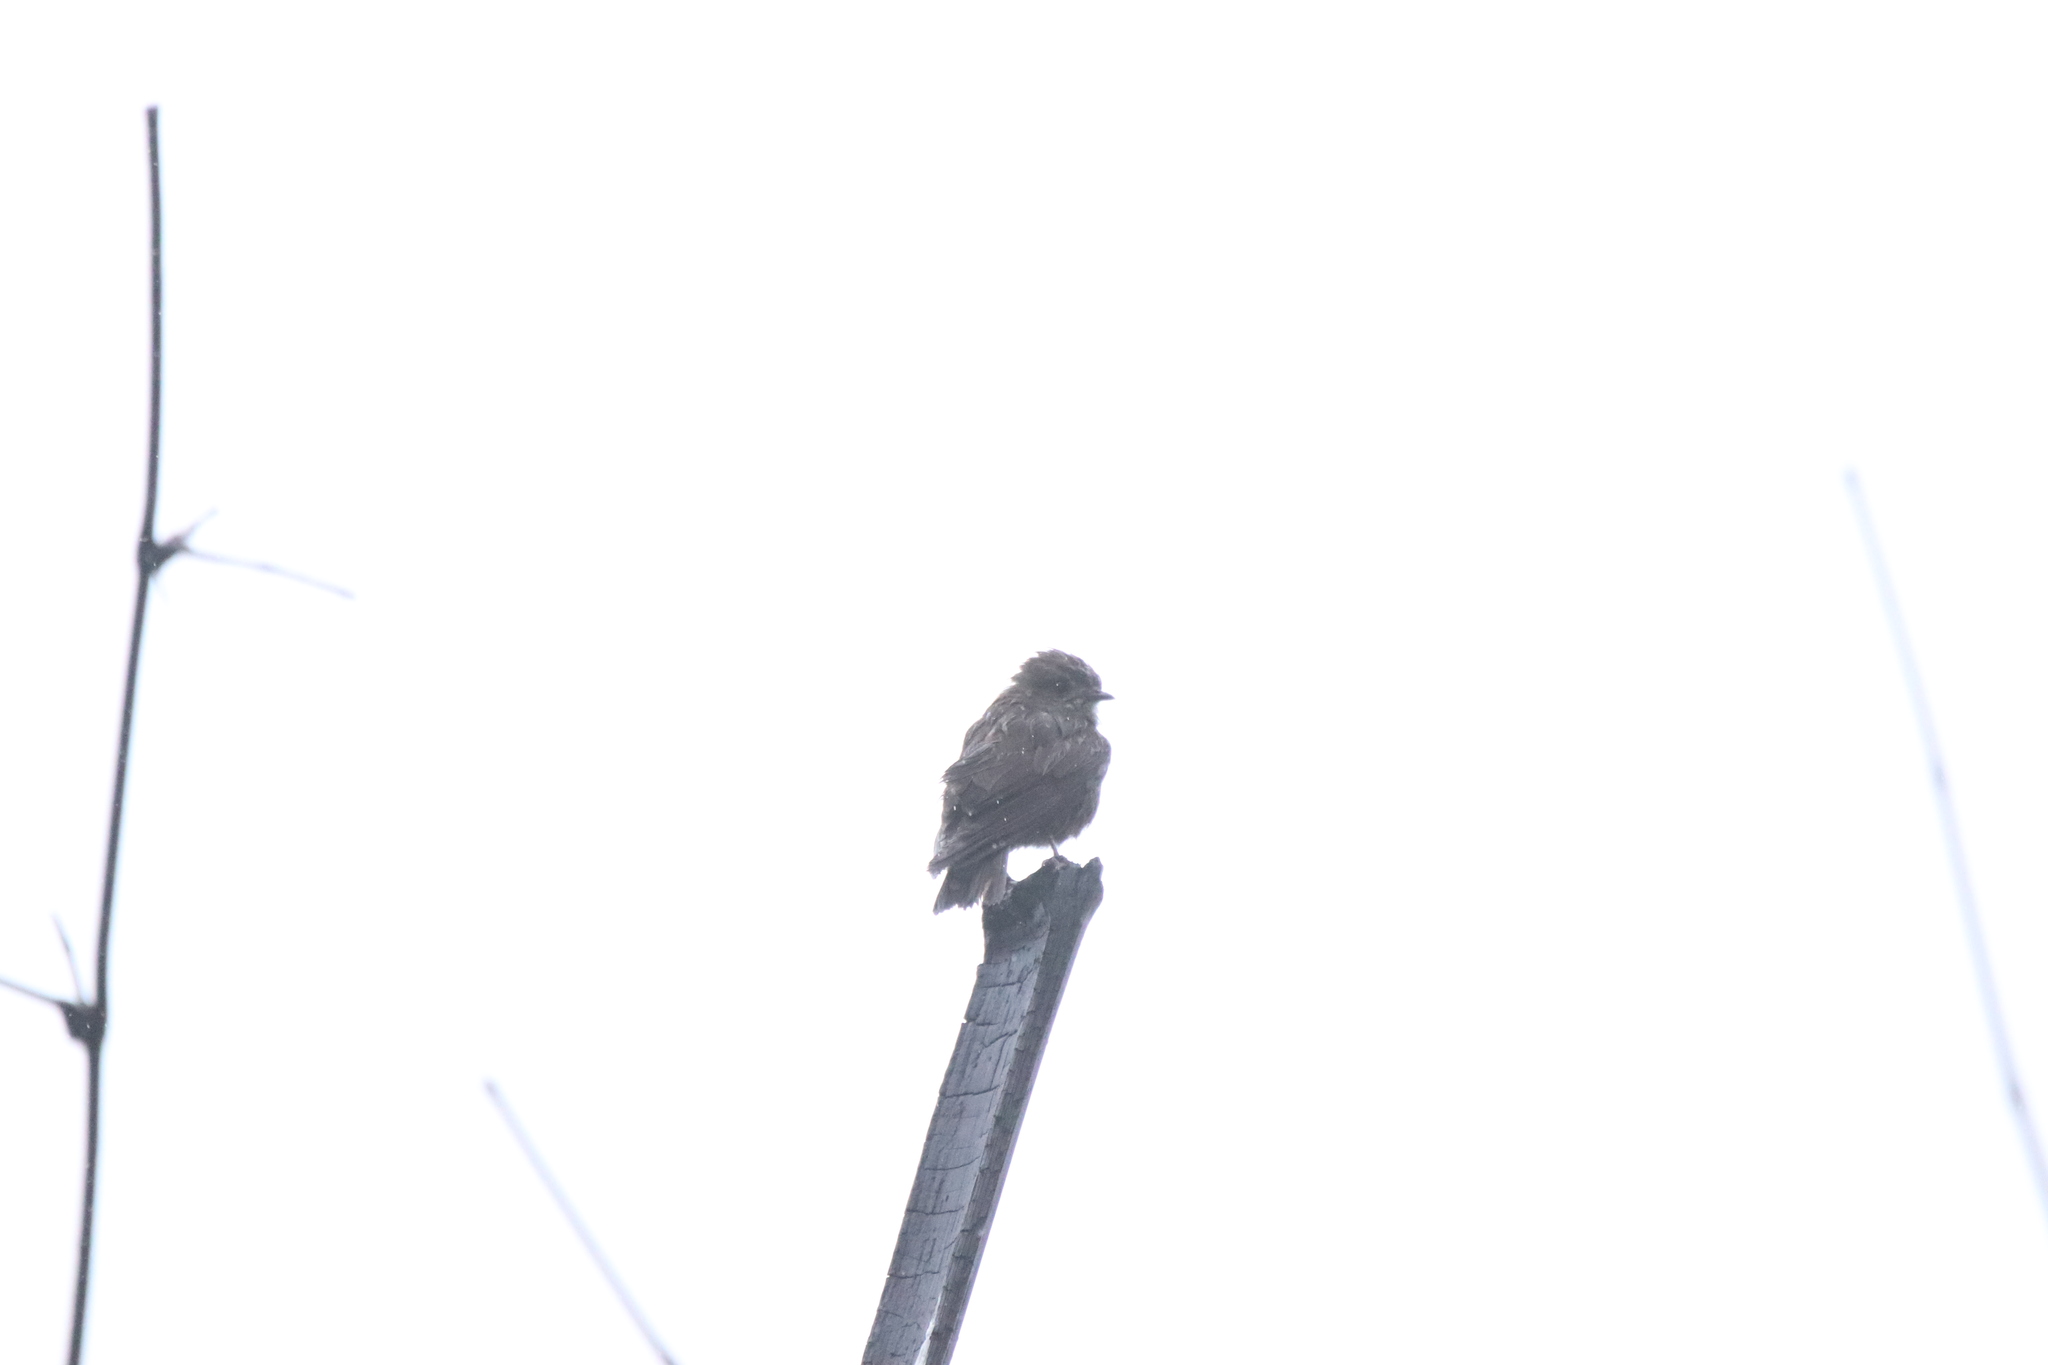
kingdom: Animalia
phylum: Chordata
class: Aves
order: Passeriformes
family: Muscicapidae
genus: Muscicapa
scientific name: Muscicapa ussheri
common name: Ussher's flycatcher
